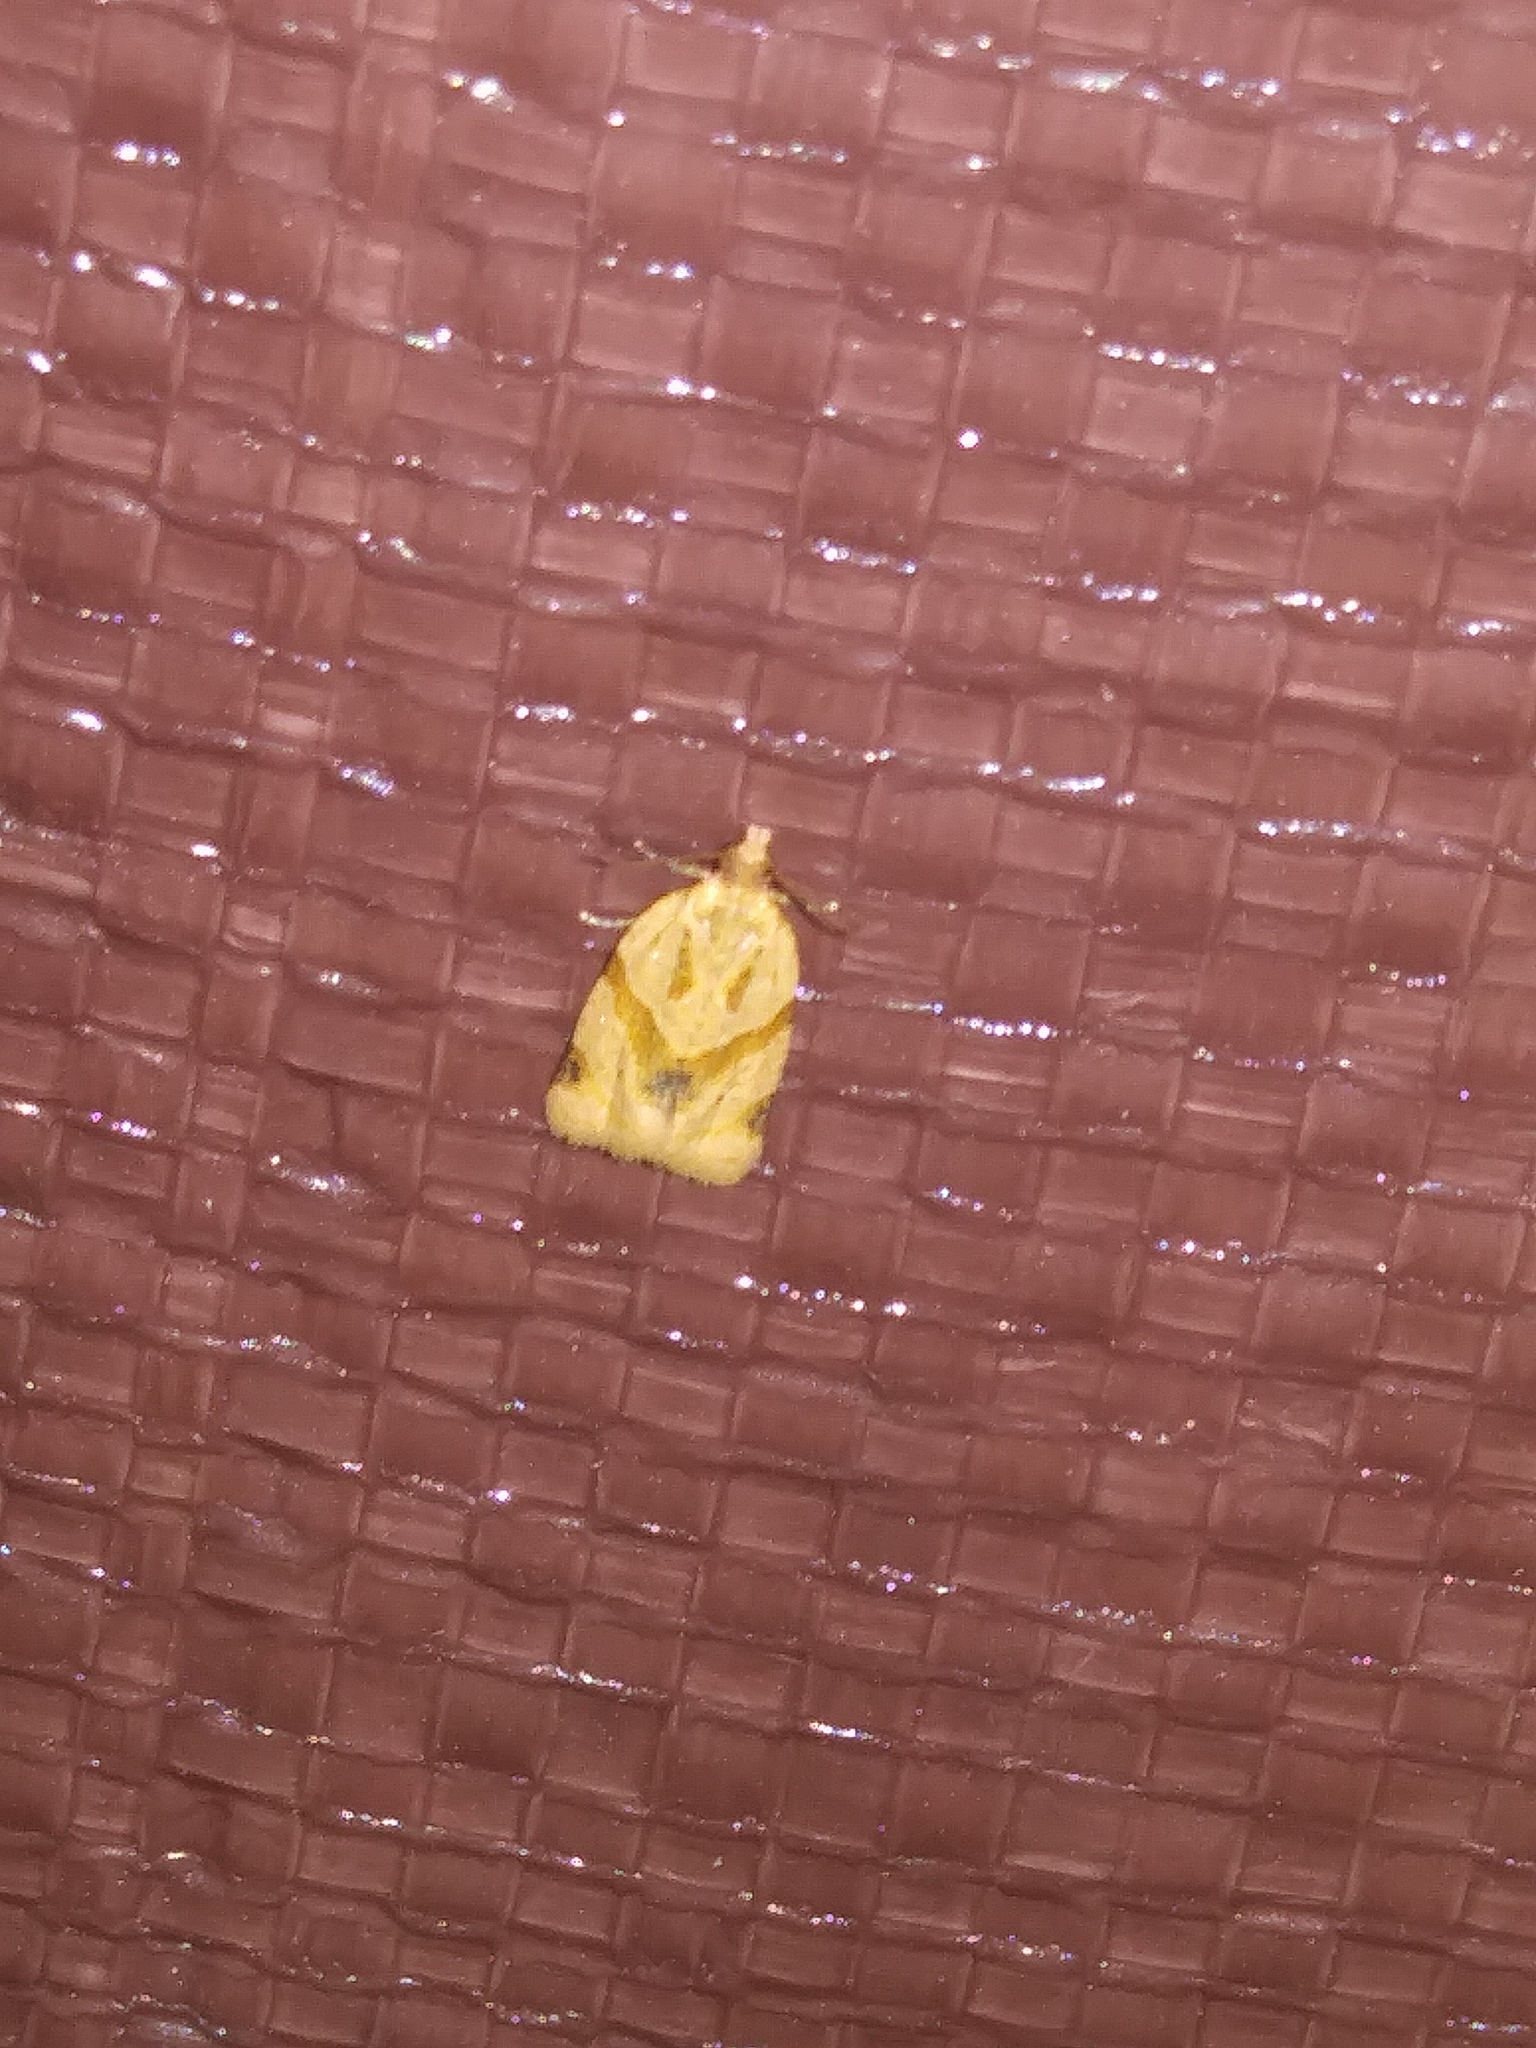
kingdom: Animalia
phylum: Arthropoda
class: Insecta
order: Lepidoptera
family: Tortricidae
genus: Clepsis
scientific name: Clepsis peritana
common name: Garden tortrix
